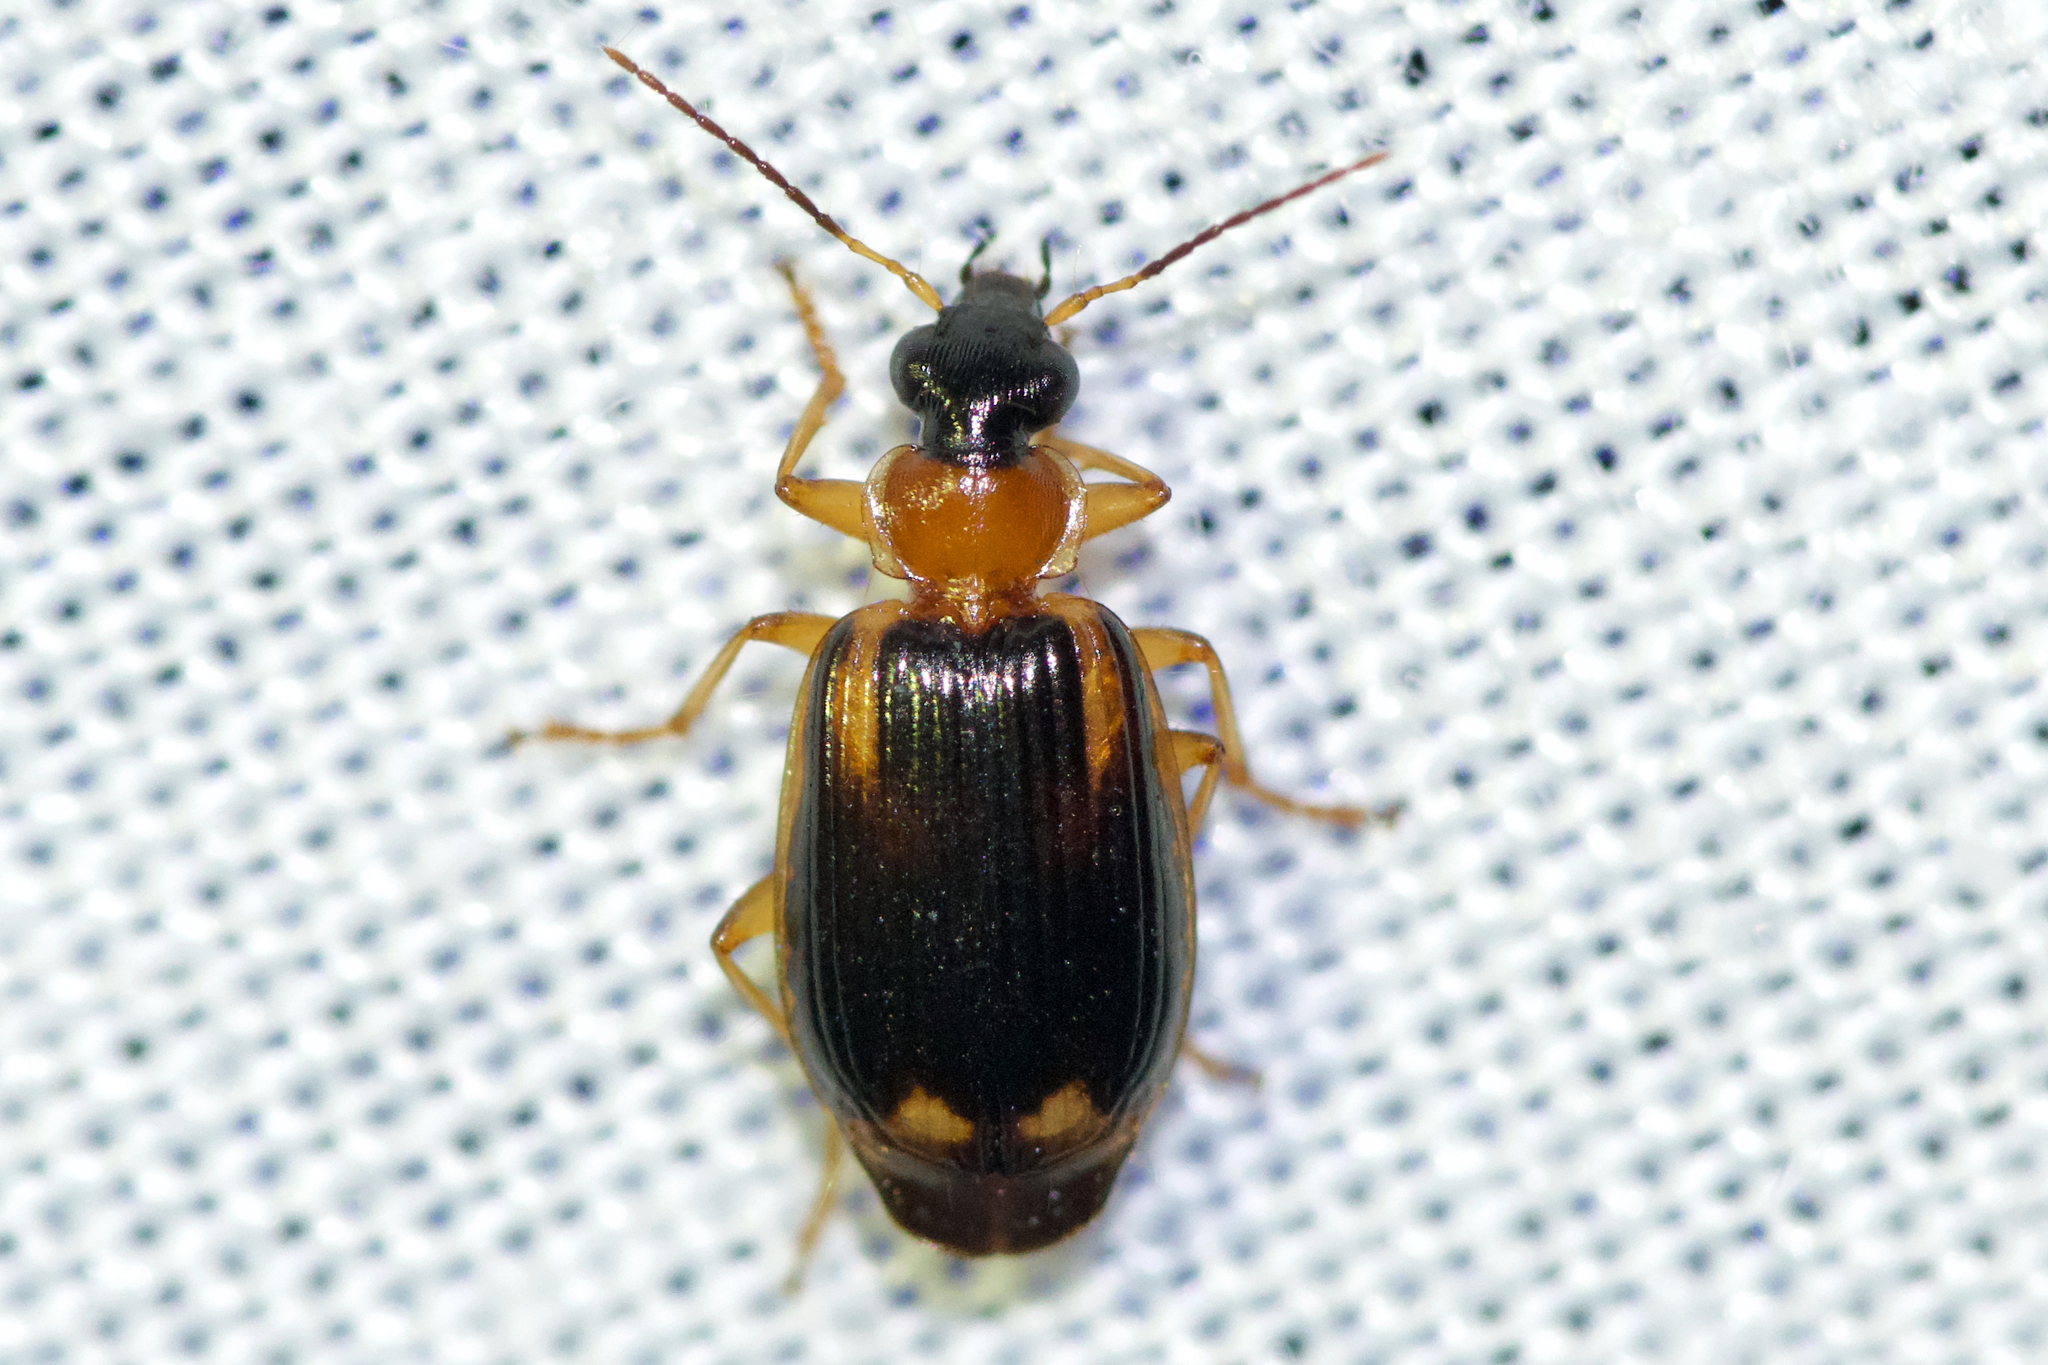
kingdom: Animalia
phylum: Arthropoda
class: Insecta
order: Coleoptera
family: Carabidae
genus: Lebia
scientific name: Lebia analis
